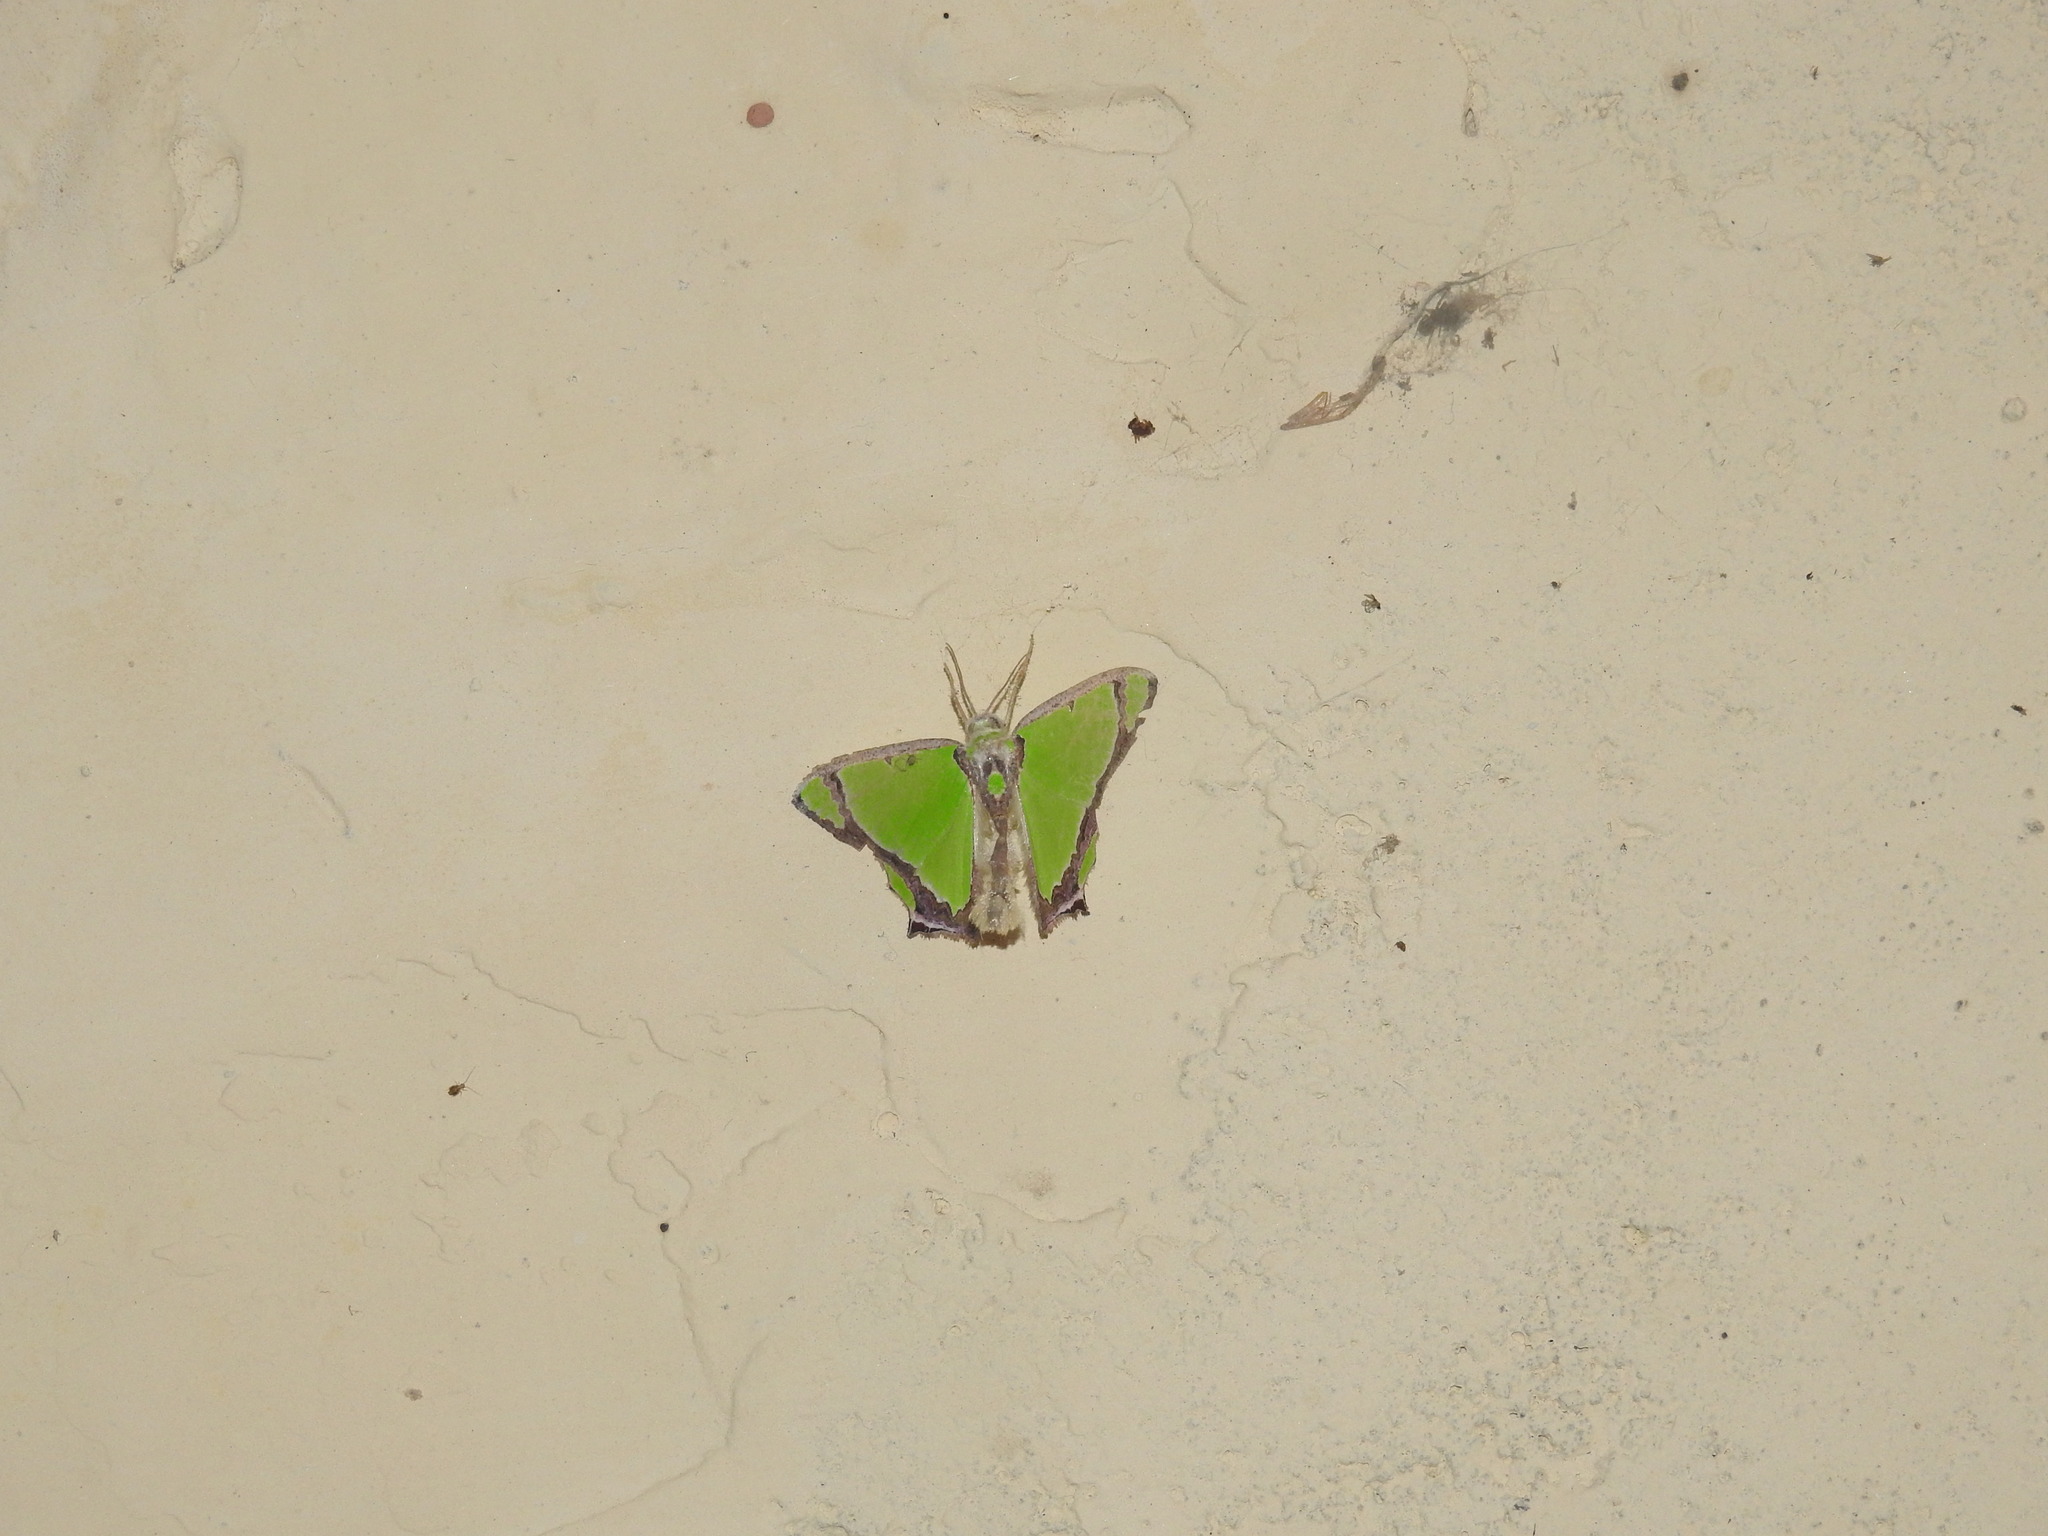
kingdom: Animalia
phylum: Arthropoda
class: Insecta
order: Lepidoptera
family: Geometridae
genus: Agathia
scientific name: Agathia laetata
